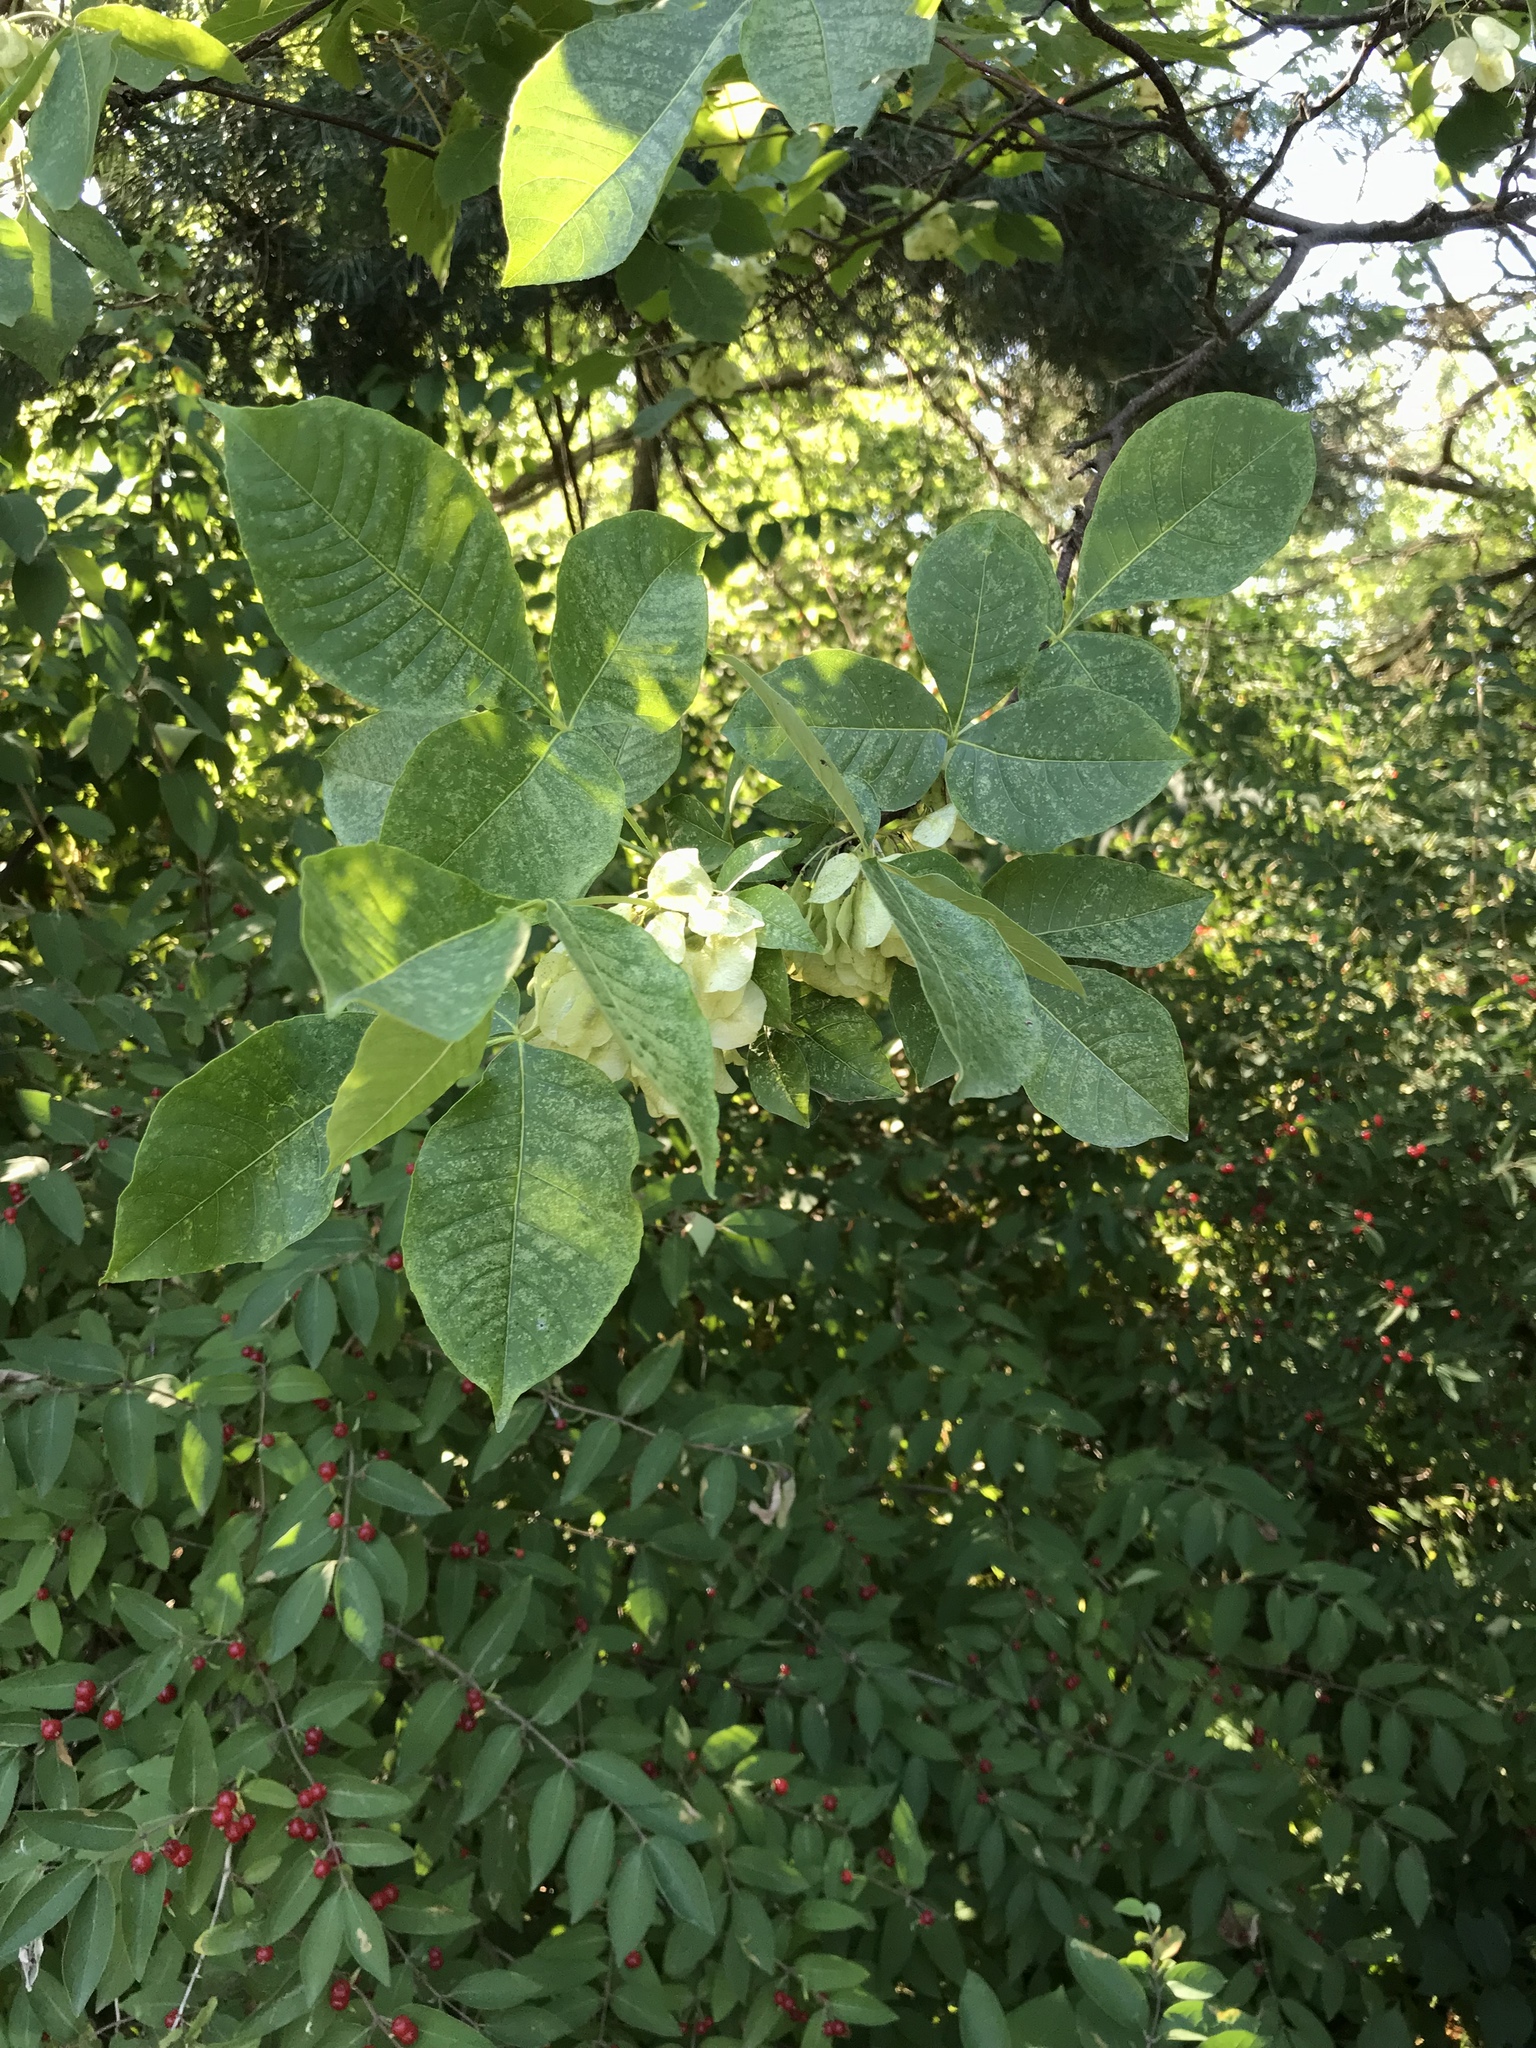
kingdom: Plantae
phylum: Tracheophyta
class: Magnoliopsida
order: Sapindales
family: Rutaceae
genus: Ptelea
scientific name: Ptelea trifoliata
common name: Common hop-tree
